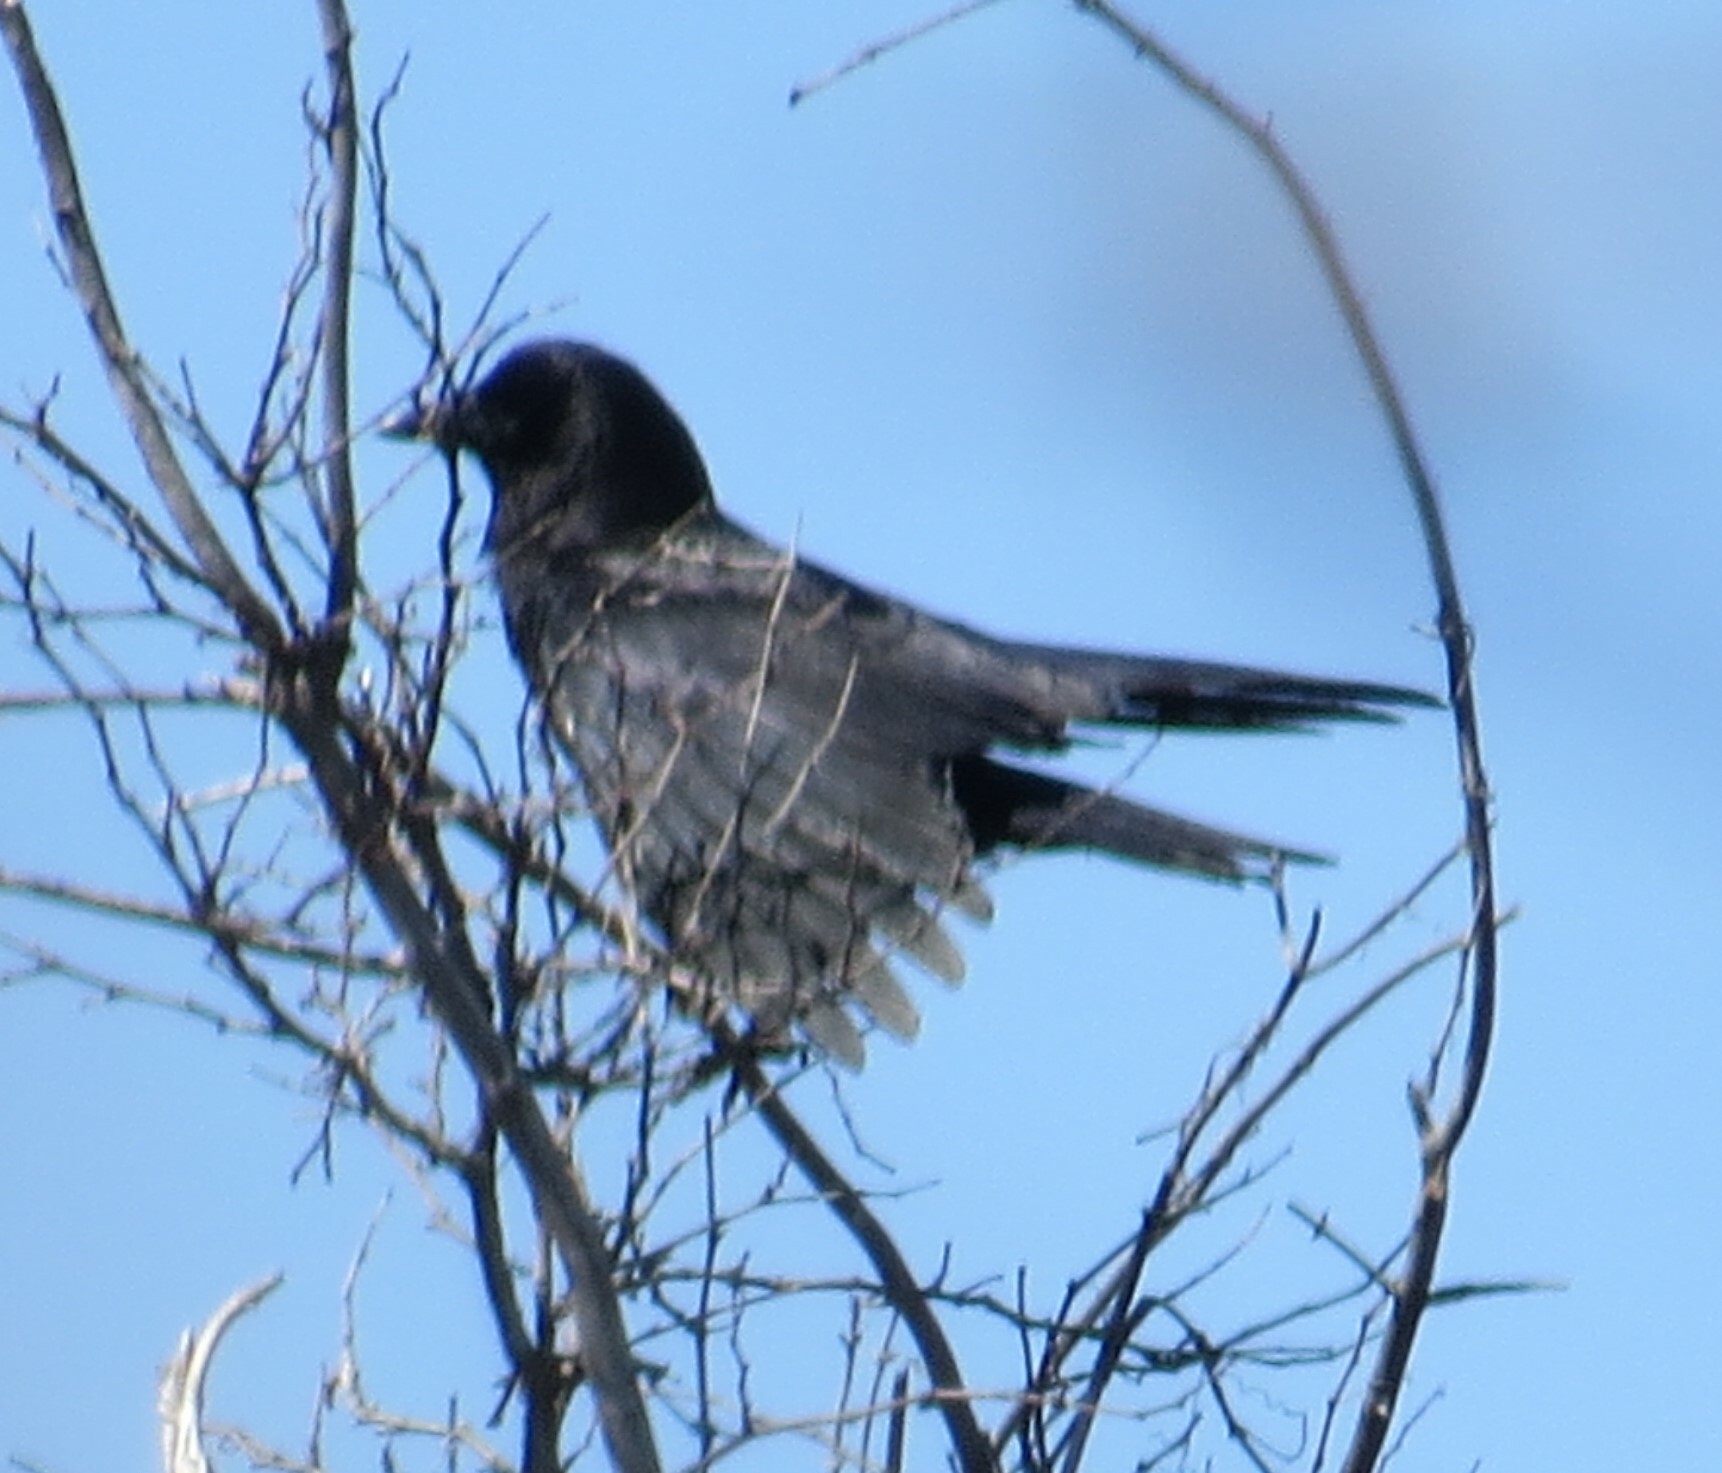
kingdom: Animalia
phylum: Chordata
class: Aves
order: Passeriformes
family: Corvidae
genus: Corvus
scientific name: Corvus brachyrhynchos
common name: American crow
